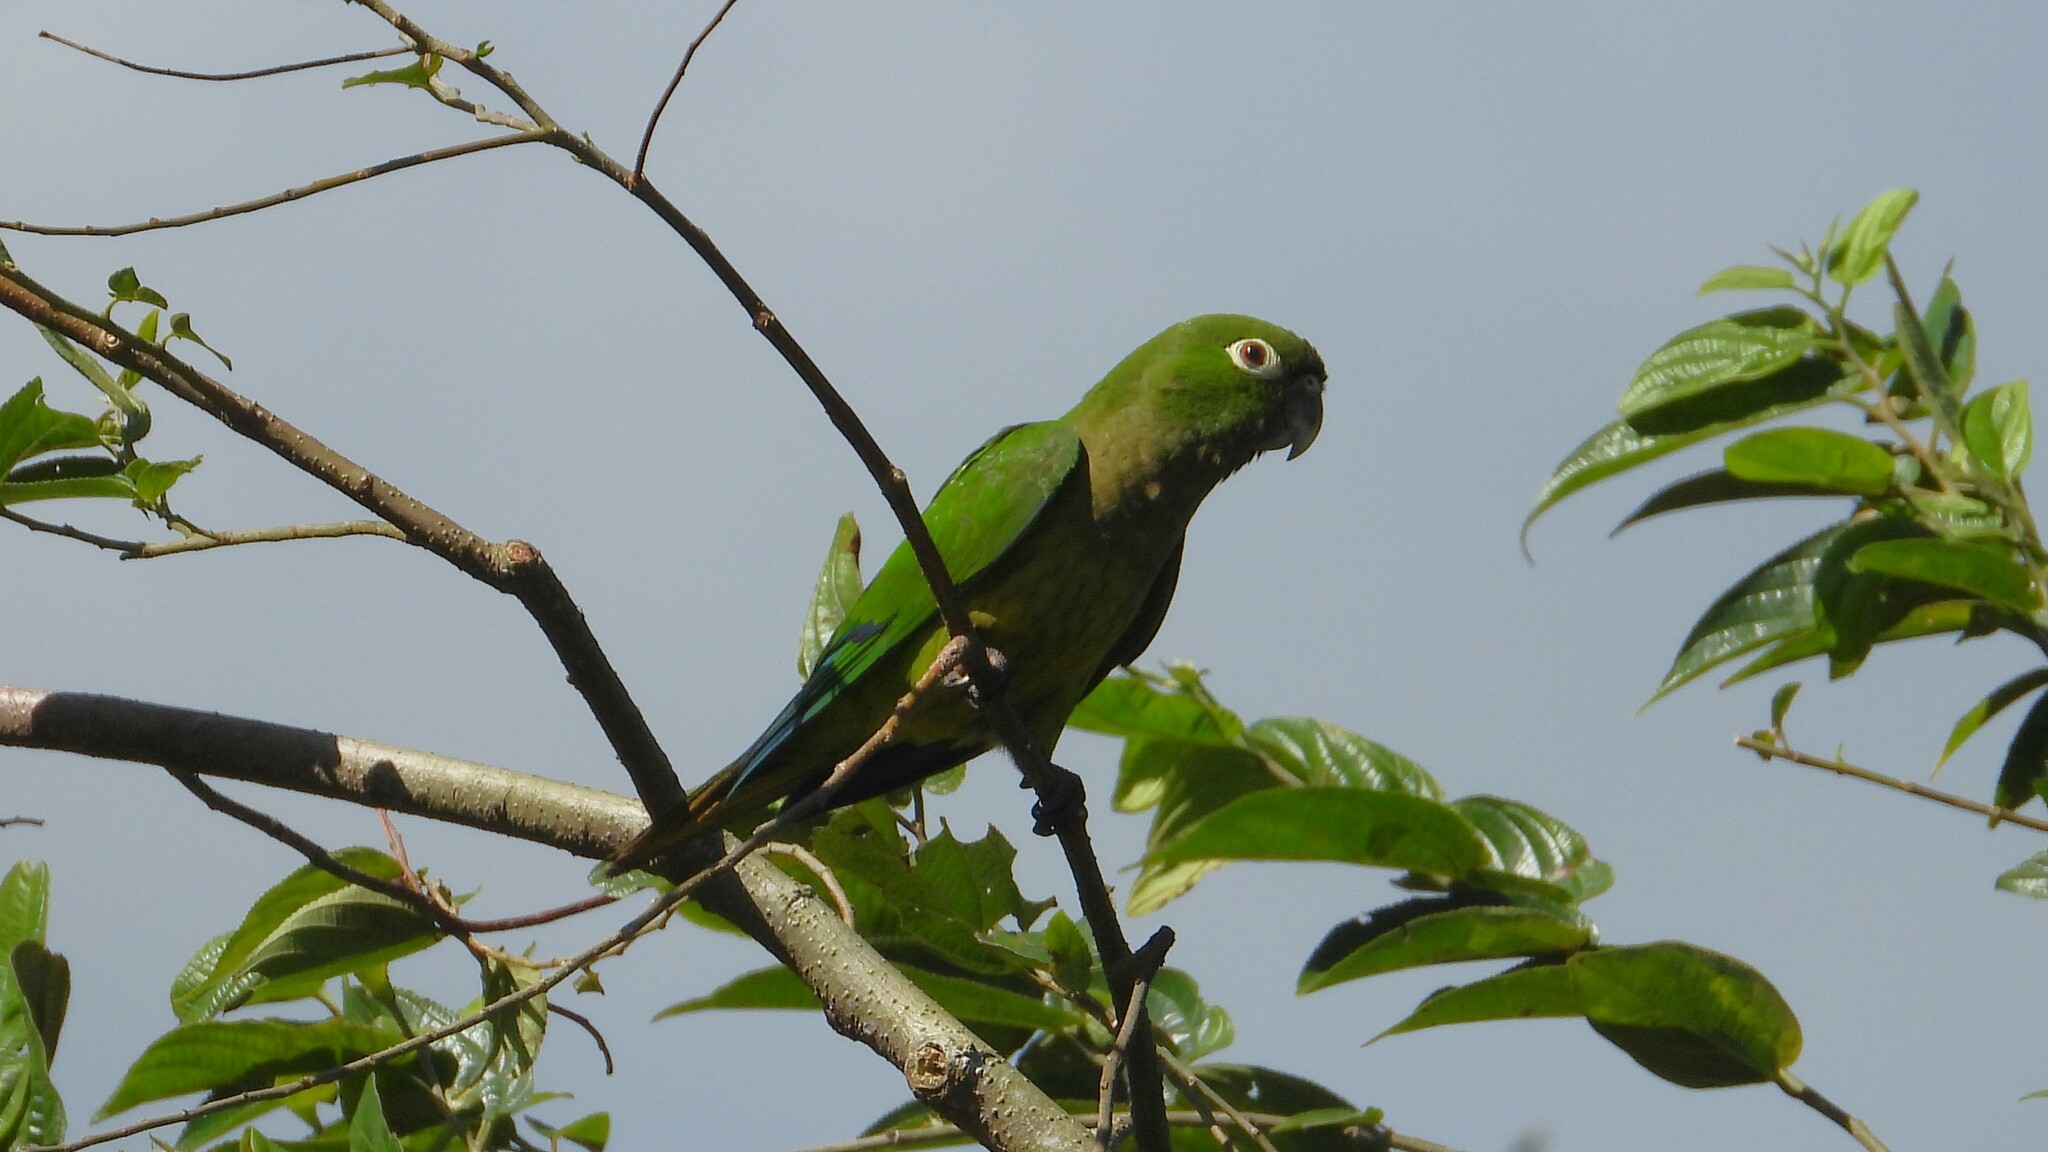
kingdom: Animalia
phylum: Chordata
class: Aves
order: Psittaciformes
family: Psittacidae
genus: Aratinga
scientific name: Aratinga nana
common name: Olive-throated parakeet
